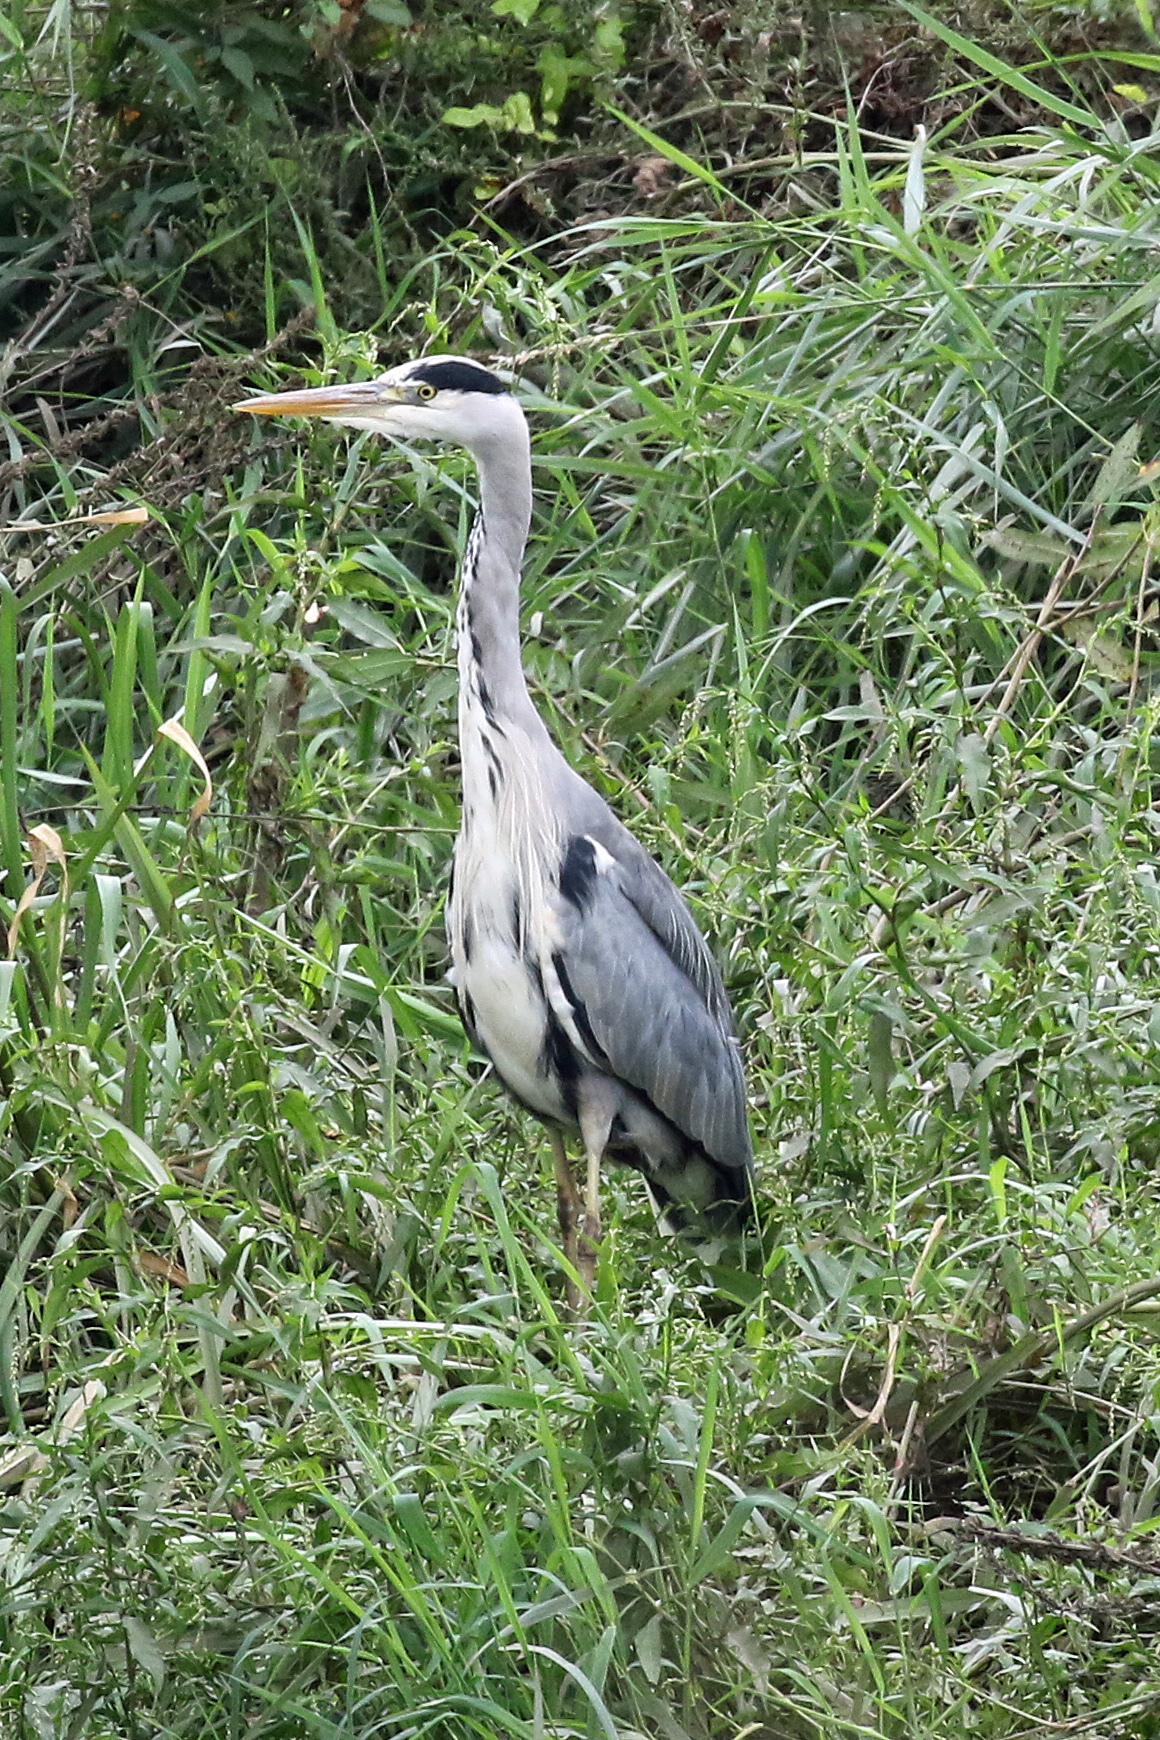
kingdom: Animalia
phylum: Chordata
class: Aves
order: Pelecaniformes
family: Ardeidae
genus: Ardea
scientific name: Ardea cinerea
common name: Grey heron
